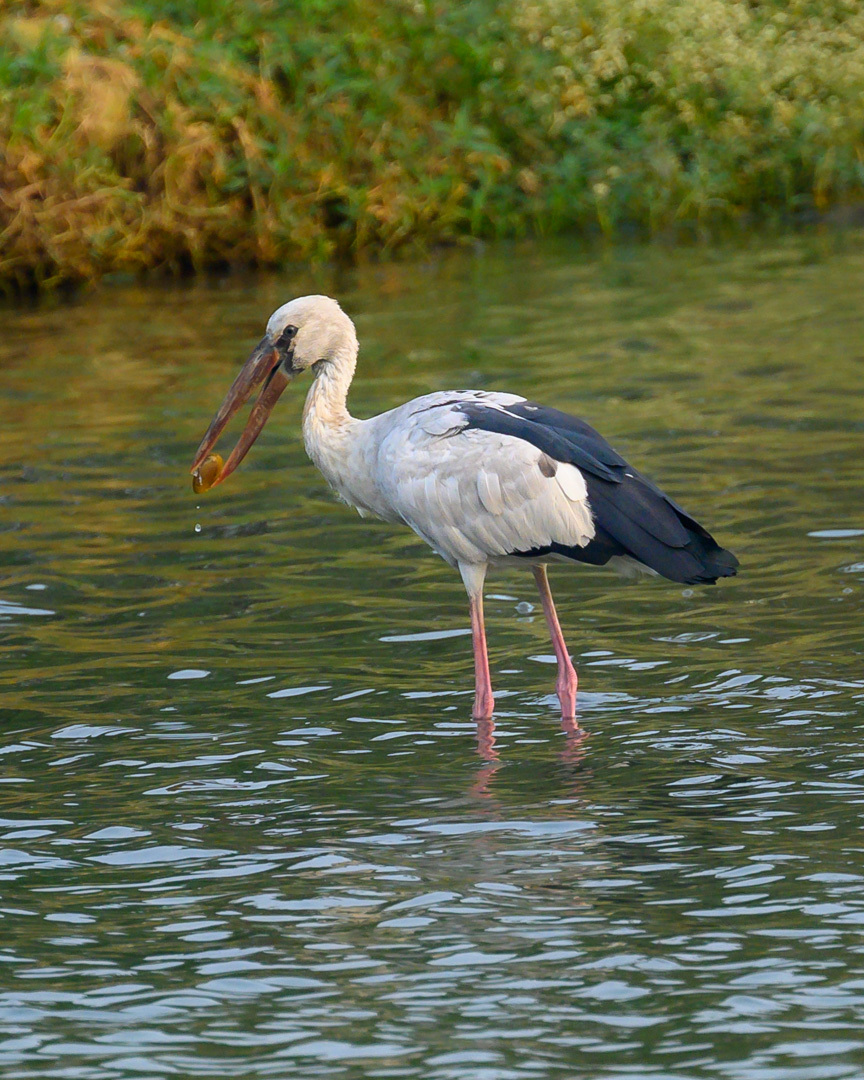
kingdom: Animalia
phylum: Chordata
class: Aves
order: Ciconiiformes
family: Ciconiidae
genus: Anastomus
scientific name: Anastomus oscitans
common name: Asian openbill
